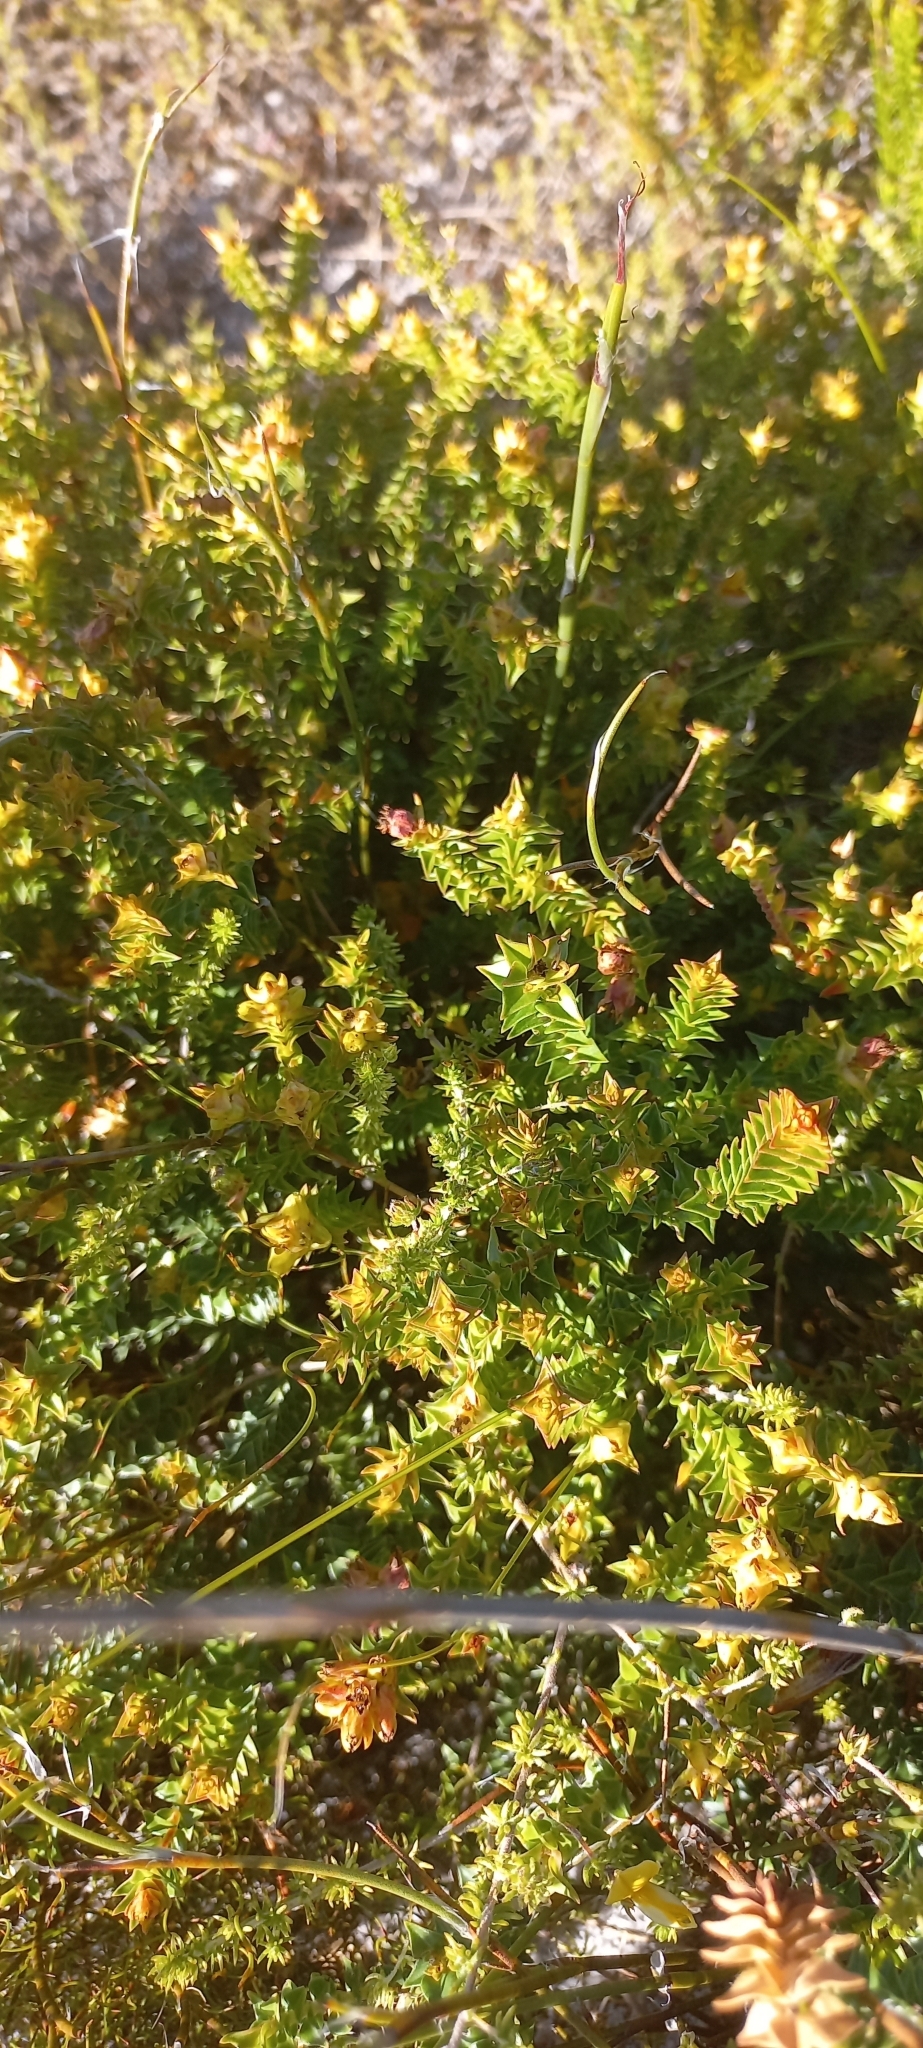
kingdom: Plantae
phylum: Tracheophyta
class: Magnoliopsida
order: Myrtales
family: Penaeaceae
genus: Penaea
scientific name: Penaea mucronata
